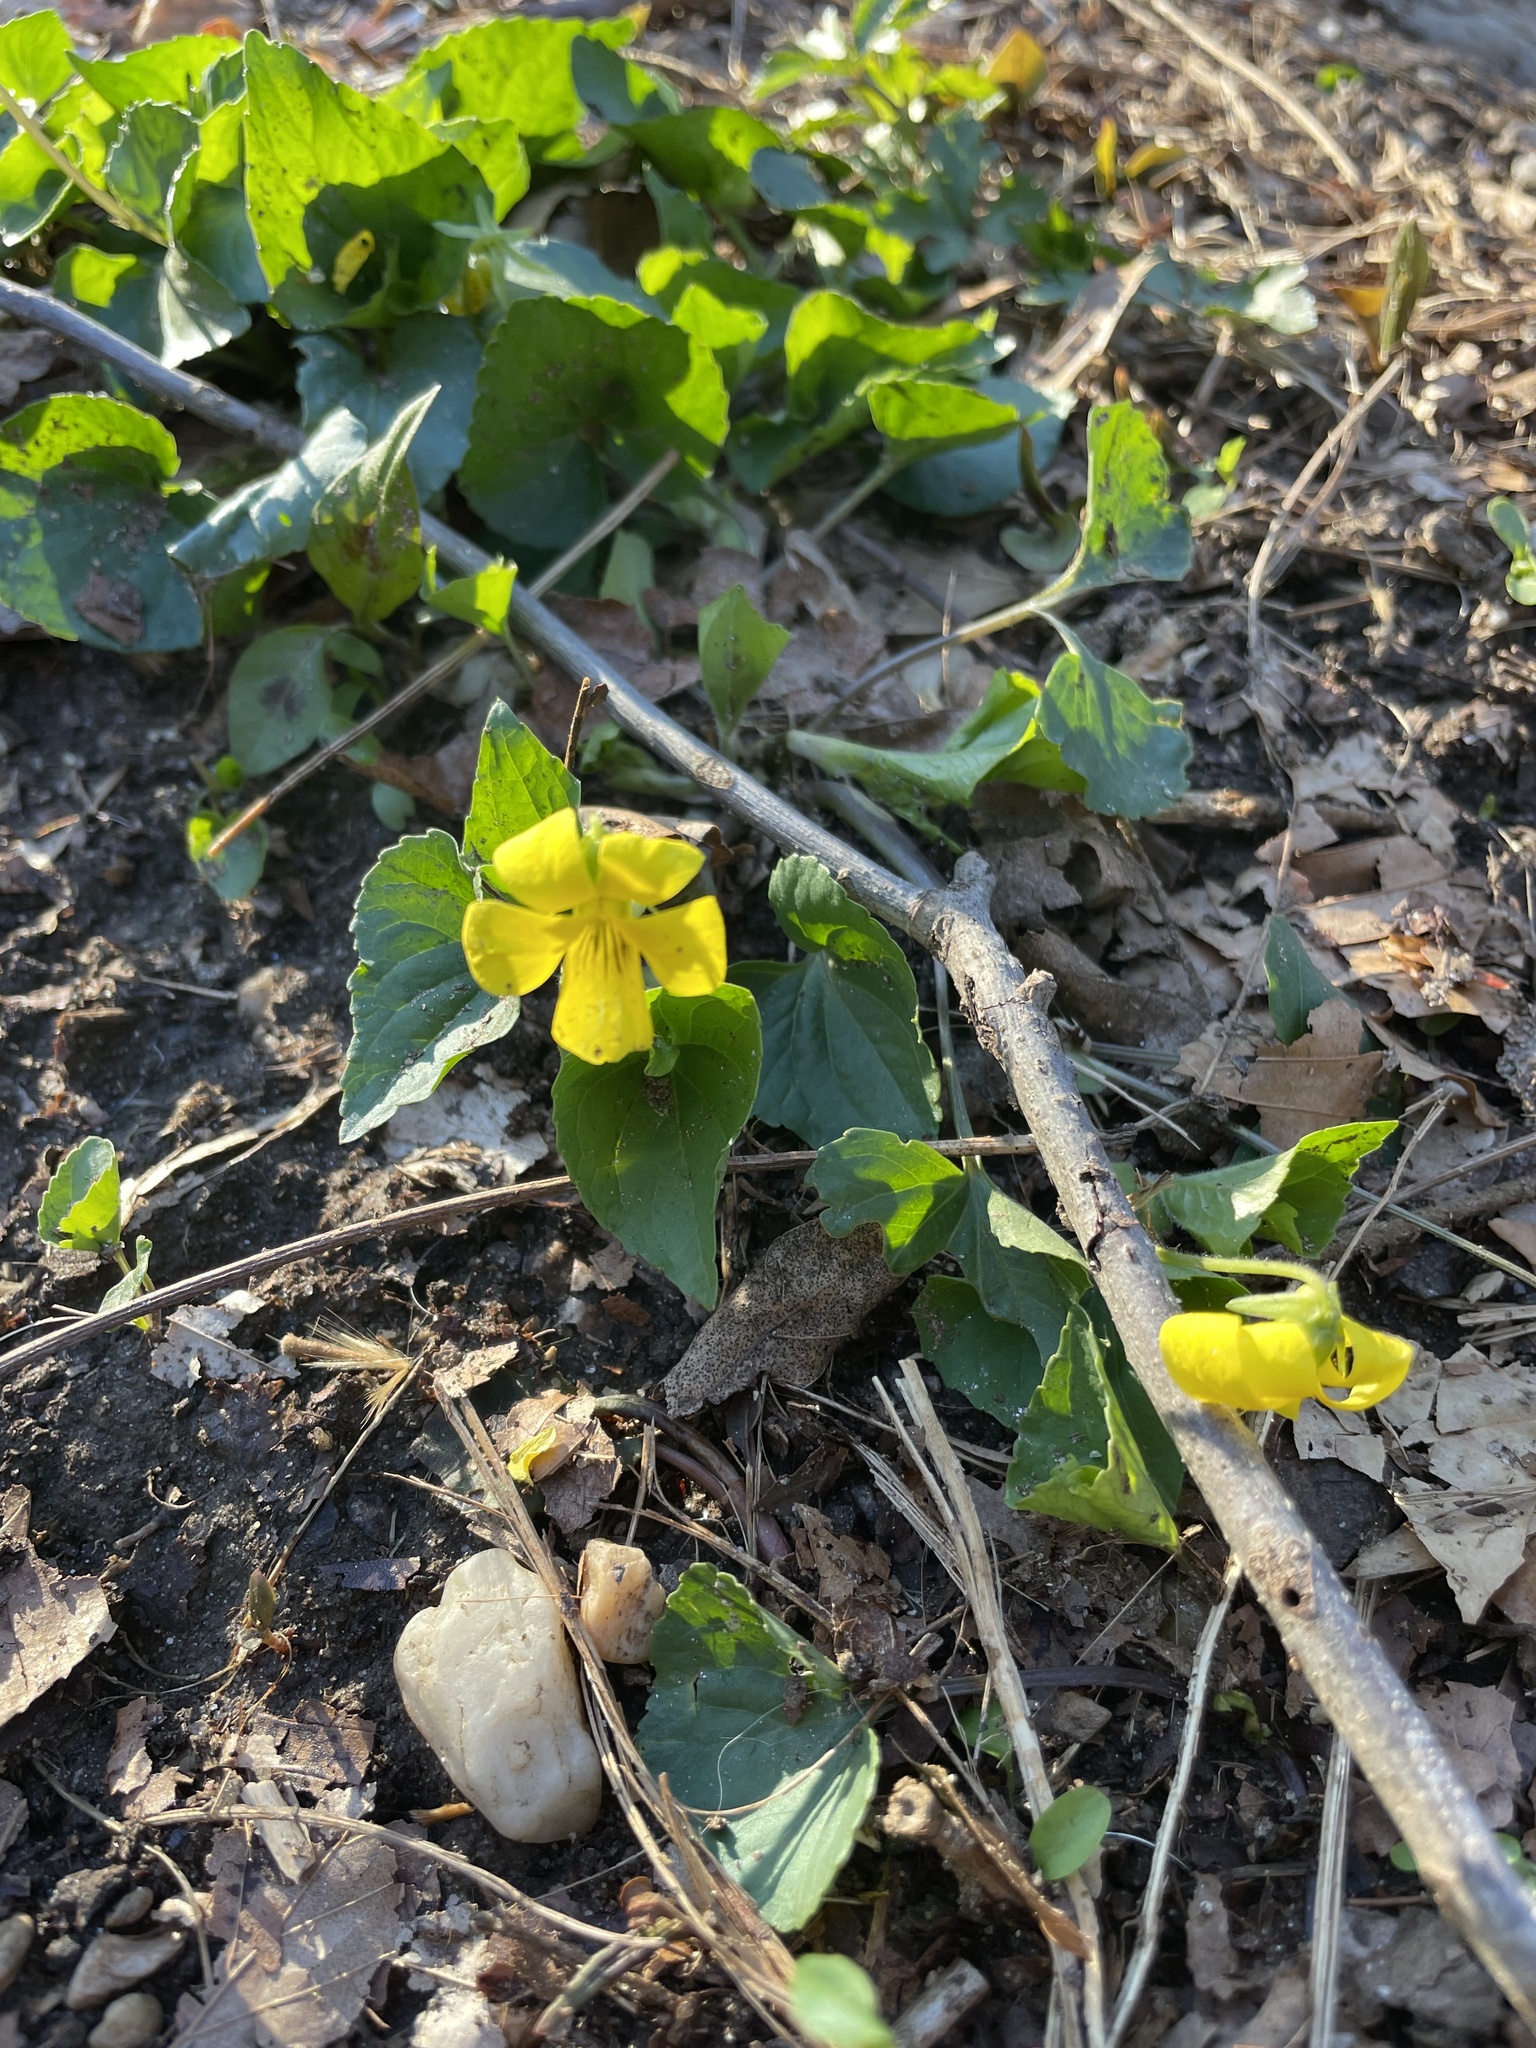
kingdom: Plantae
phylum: Tracheophyta
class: Magnoliopsida
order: Malpighiales
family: Violaceae
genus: Viola
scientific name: Viola eriocarpa
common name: Smooth yellow violet
